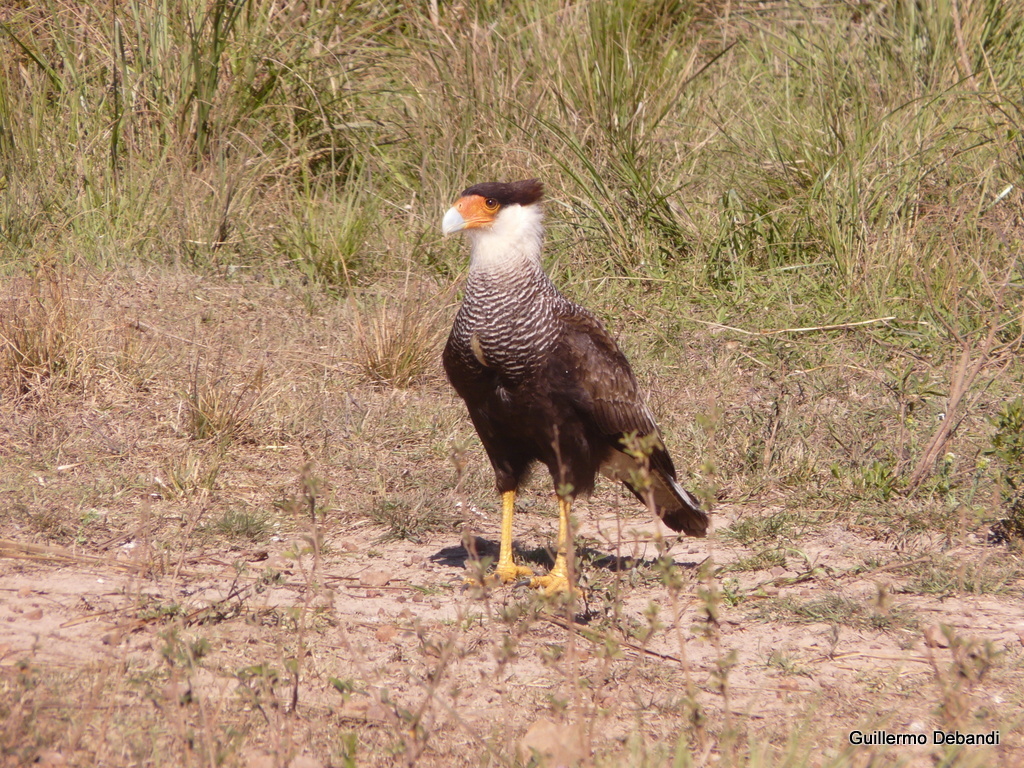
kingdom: Animalia
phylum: Chordata
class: Aves
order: Falconiformes
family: Falconidae
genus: Caracara
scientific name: Caracara plancus
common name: Southern caracara
